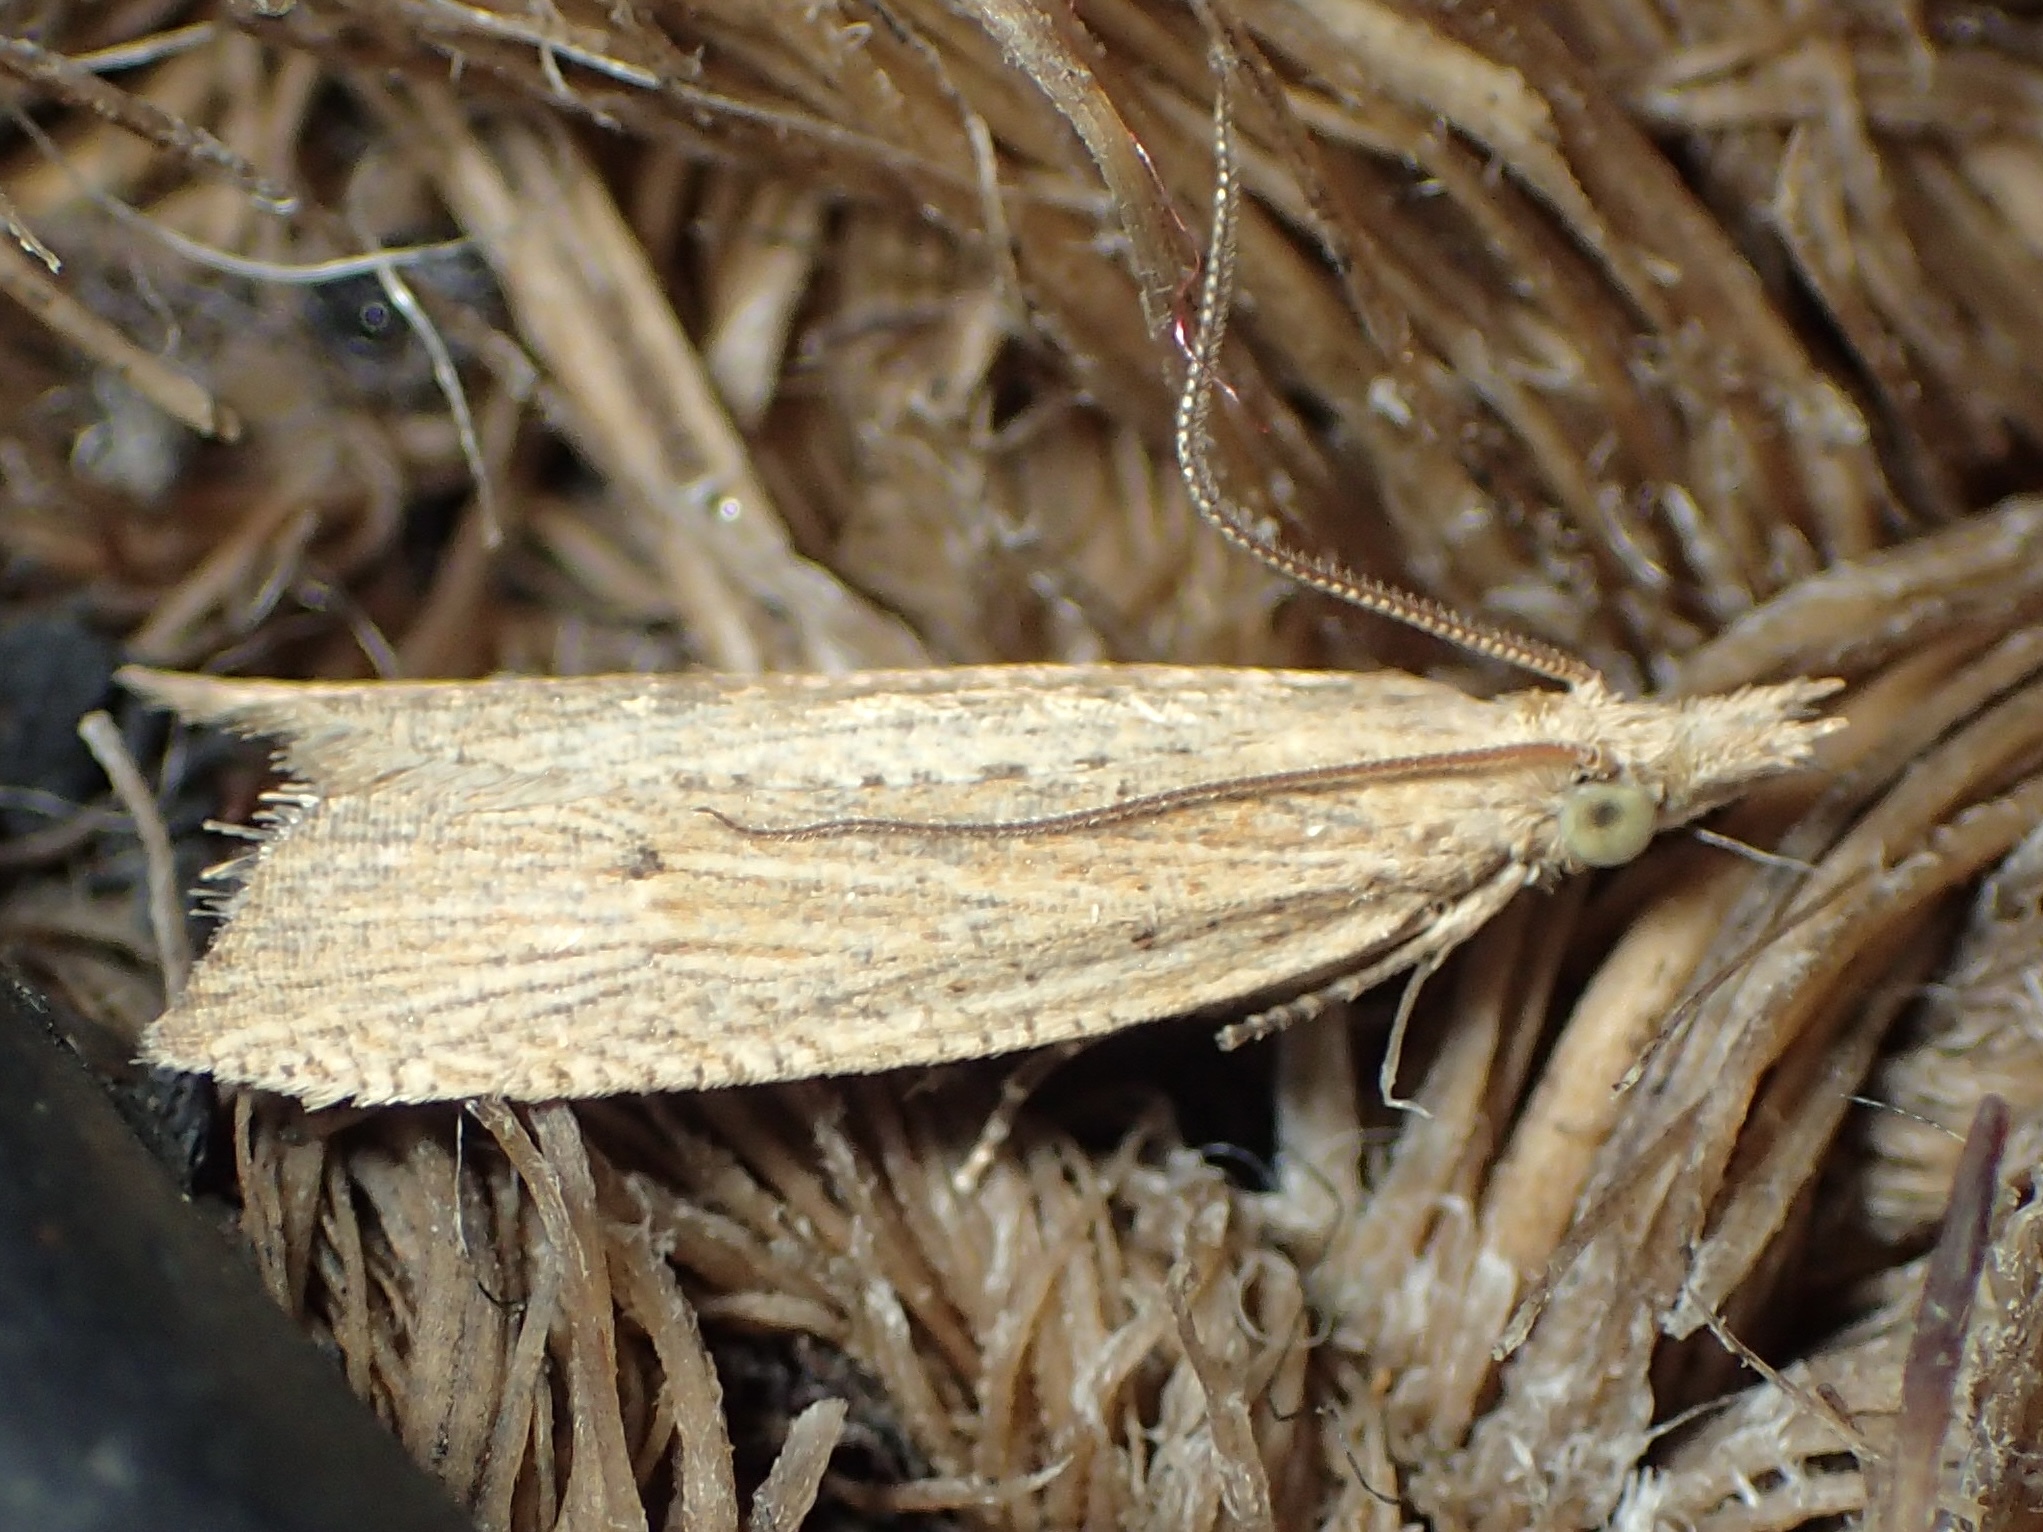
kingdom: Animalia
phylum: Arthropoda
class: Insecta
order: Lepidoptera
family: Tortricidae
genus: Bactra
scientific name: Bactra noteraula
